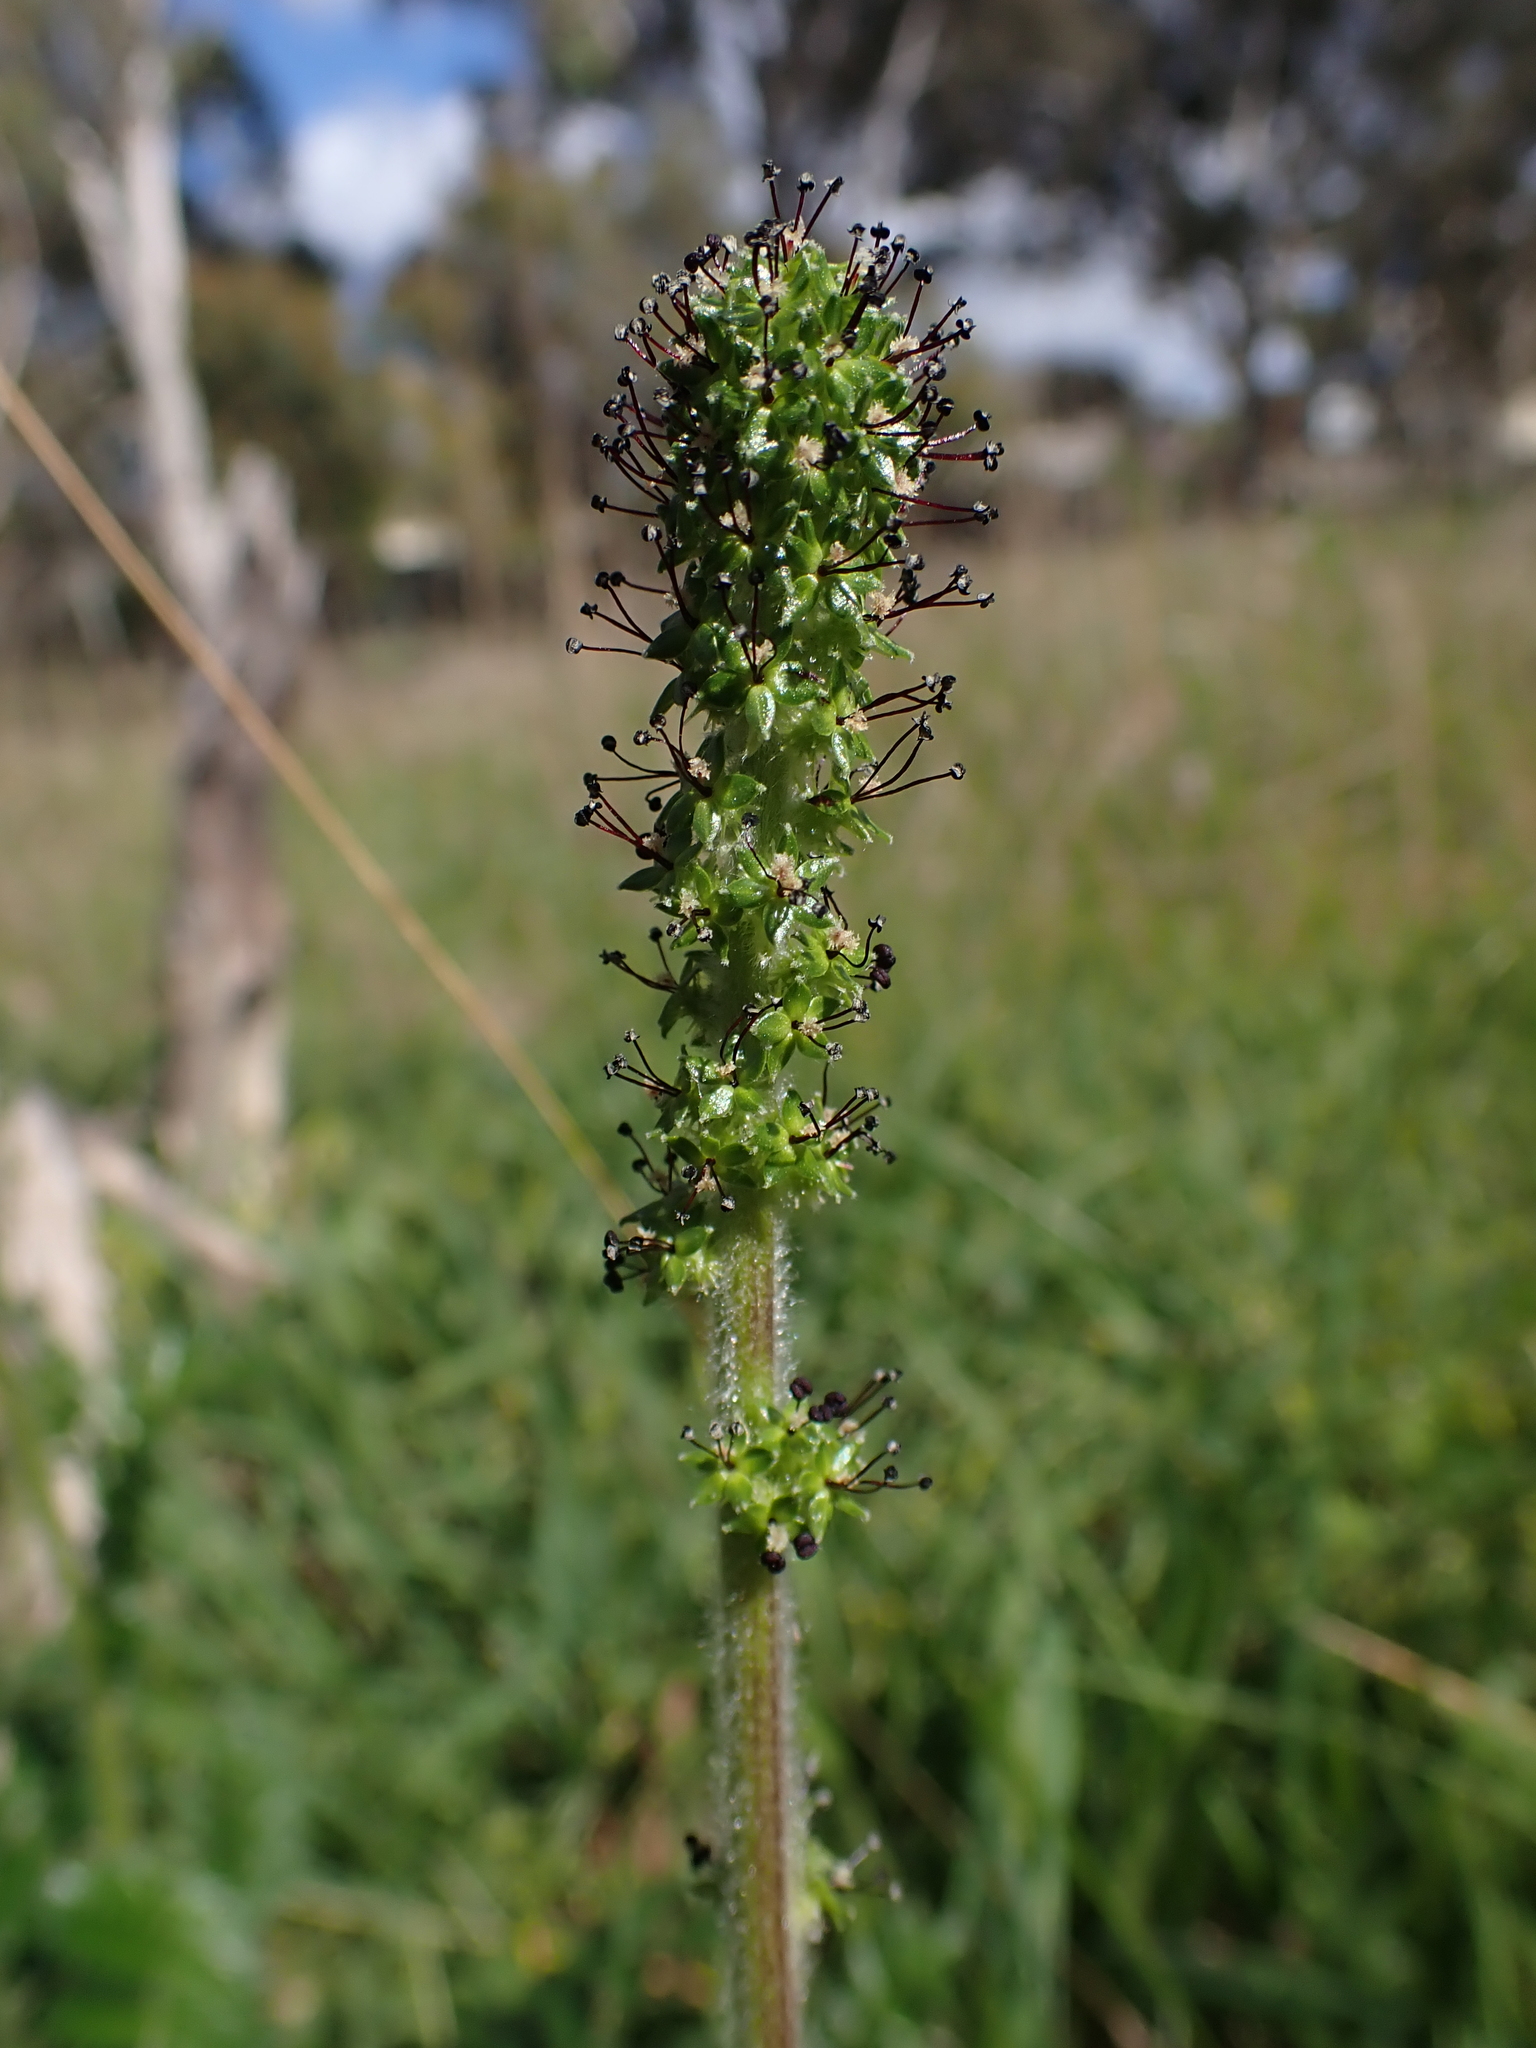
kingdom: Plantae
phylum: Tracheophyta
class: Magnoliopsida
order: Rosales
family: Rosaceae
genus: Acaena
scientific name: Acaena echinata
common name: Sheepbur
